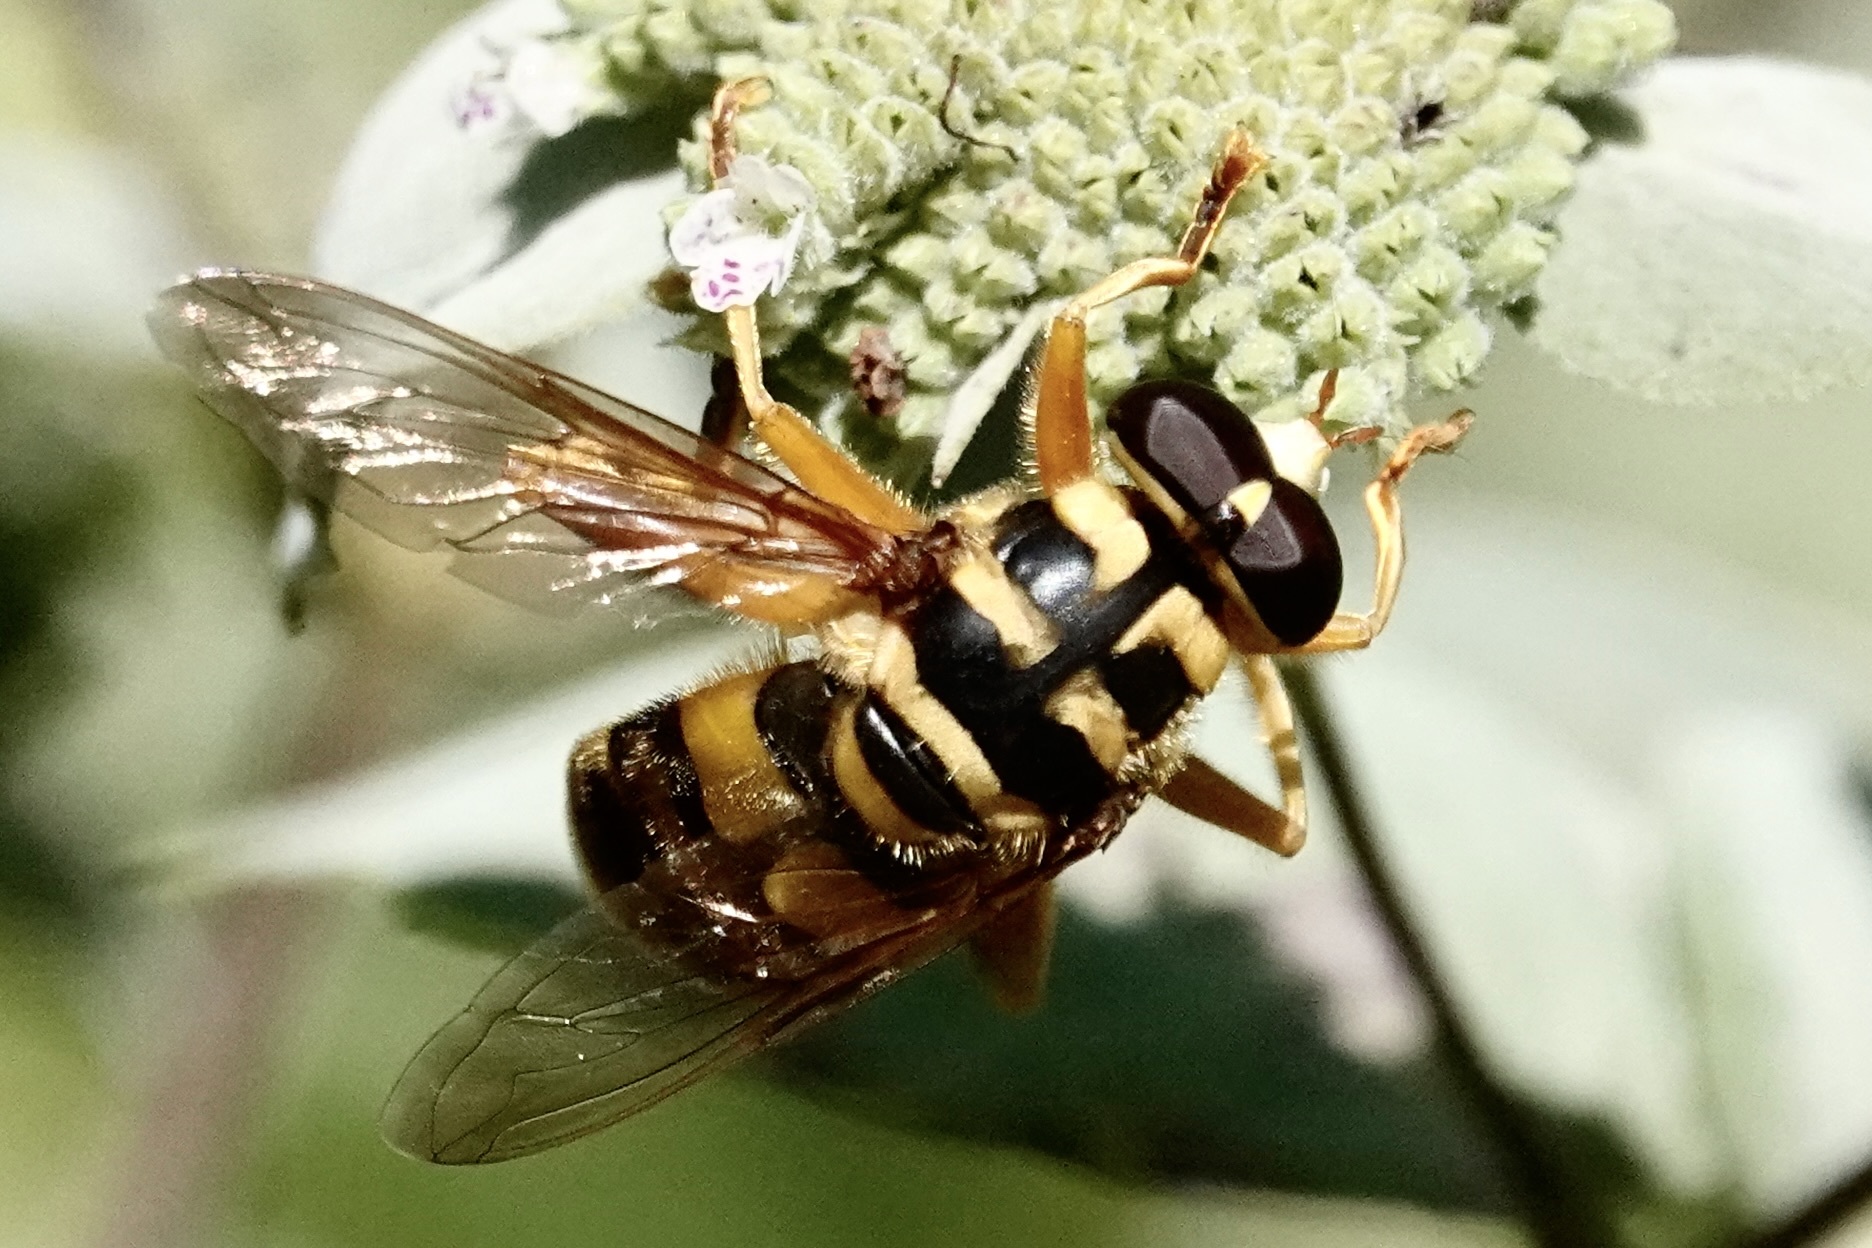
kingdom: Animalia
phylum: Arthropoda
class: Insecta
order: Diptera
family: Syrphidae
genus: Milesia
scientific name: Milesia virginiensis
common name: Virginia giant
